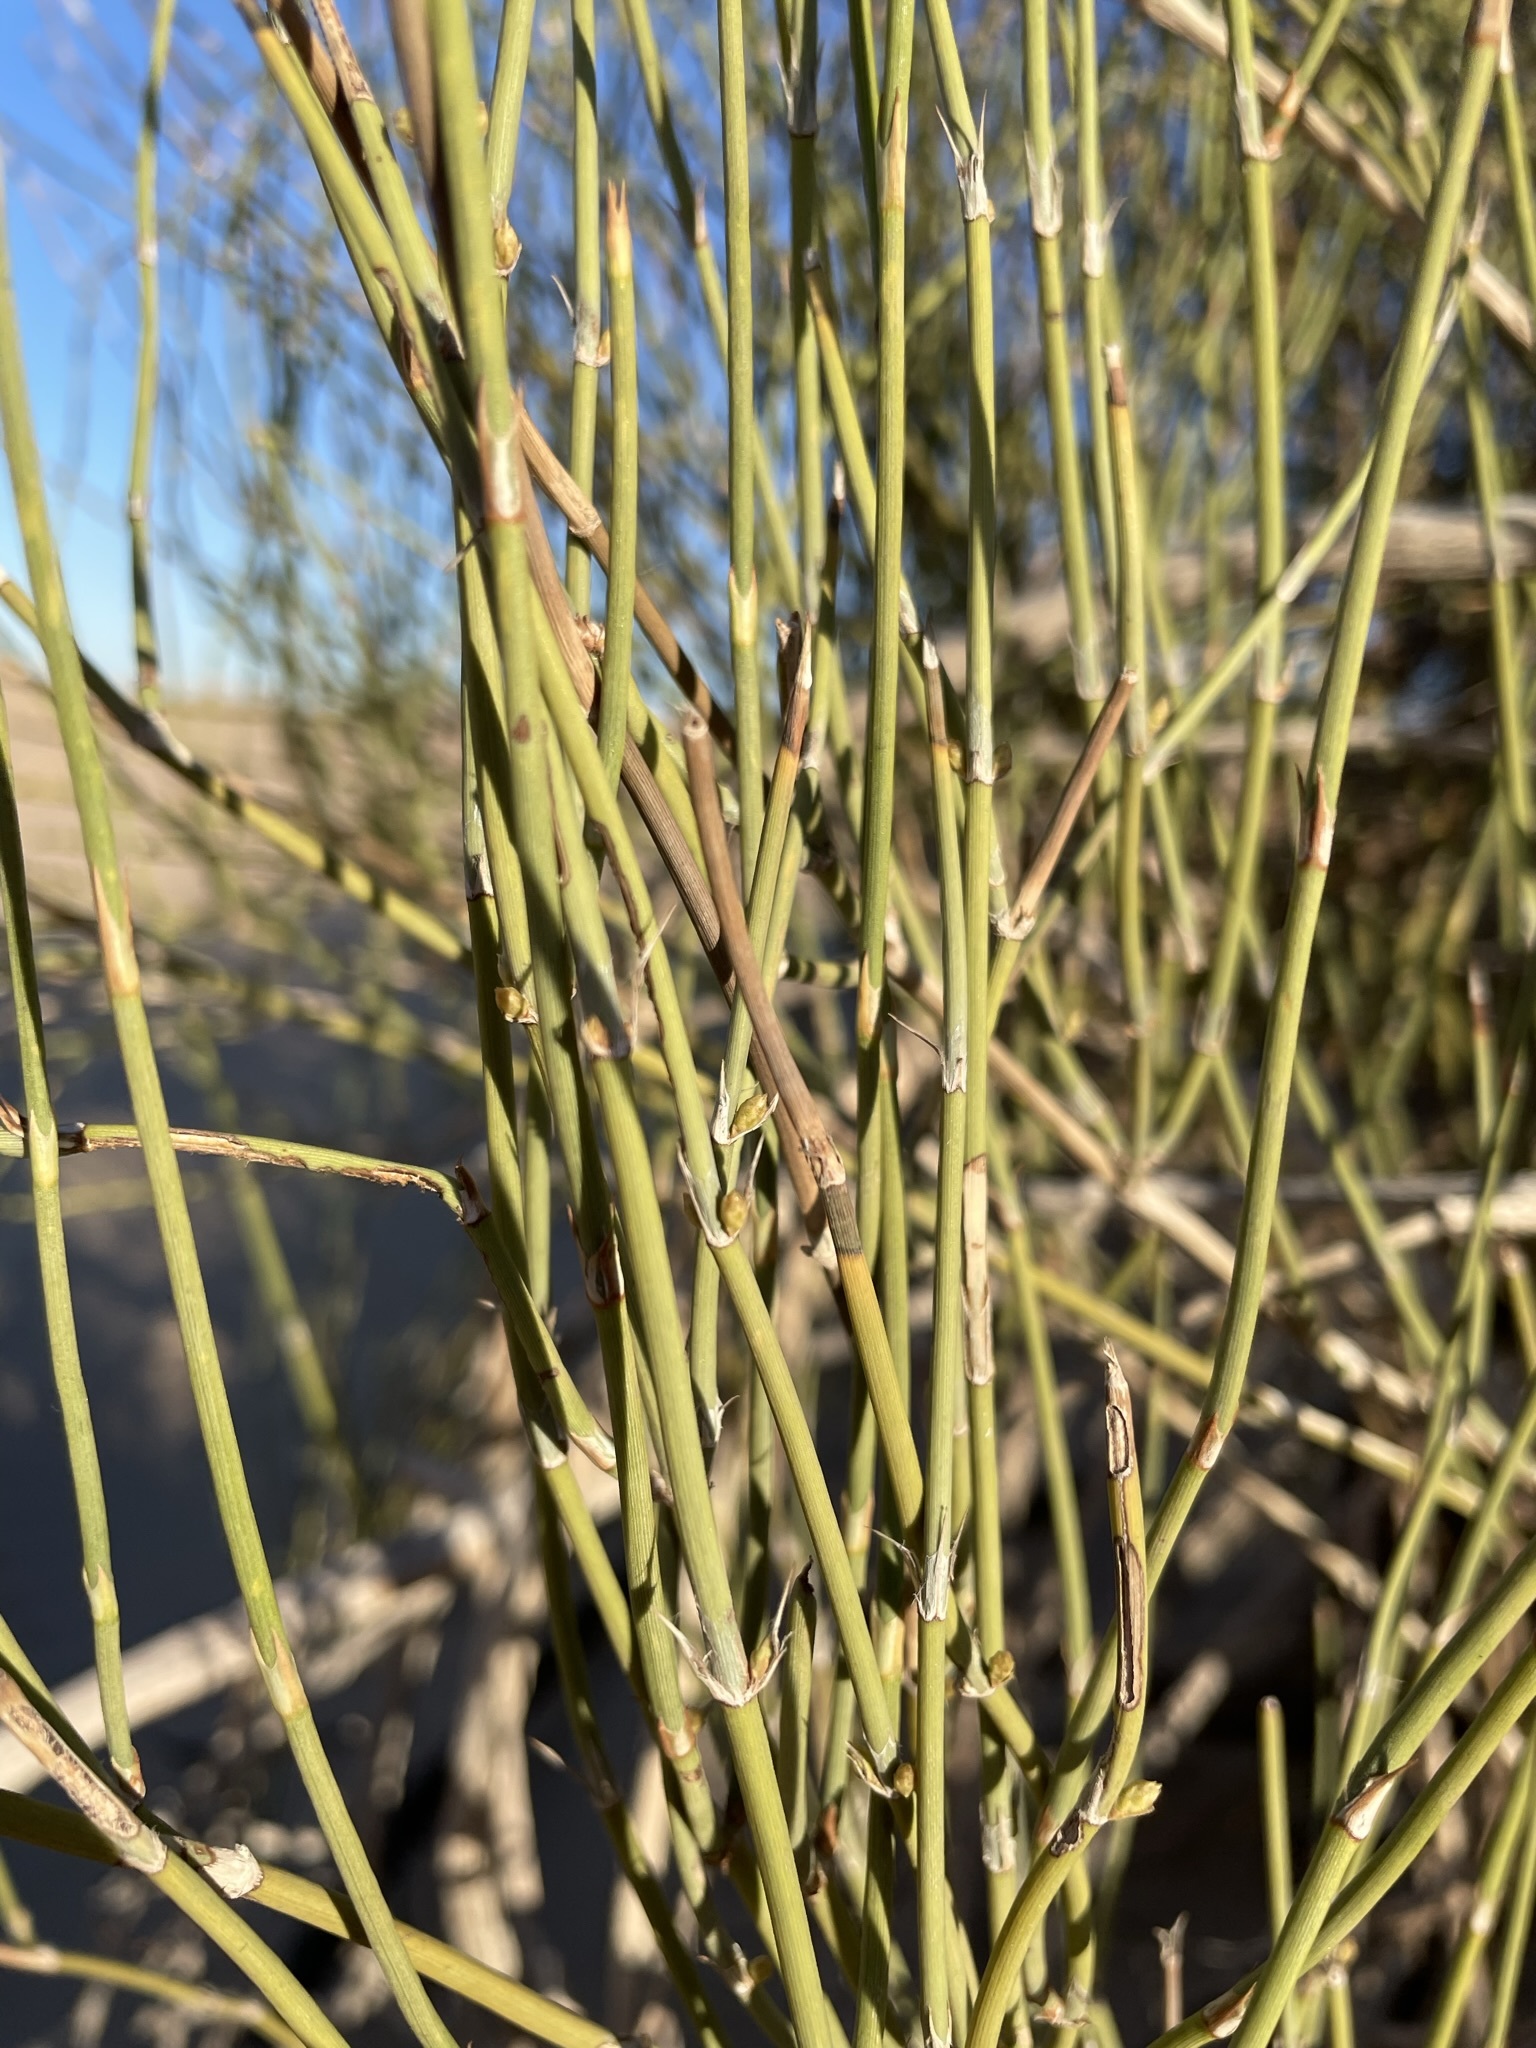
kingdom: Plantae
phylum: Tracheophyta
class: Gnetopsida
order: Ephedrales
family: Ephedraceae
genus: Ephedra
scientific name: Ephedra trifurca
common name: Mexican-tea
